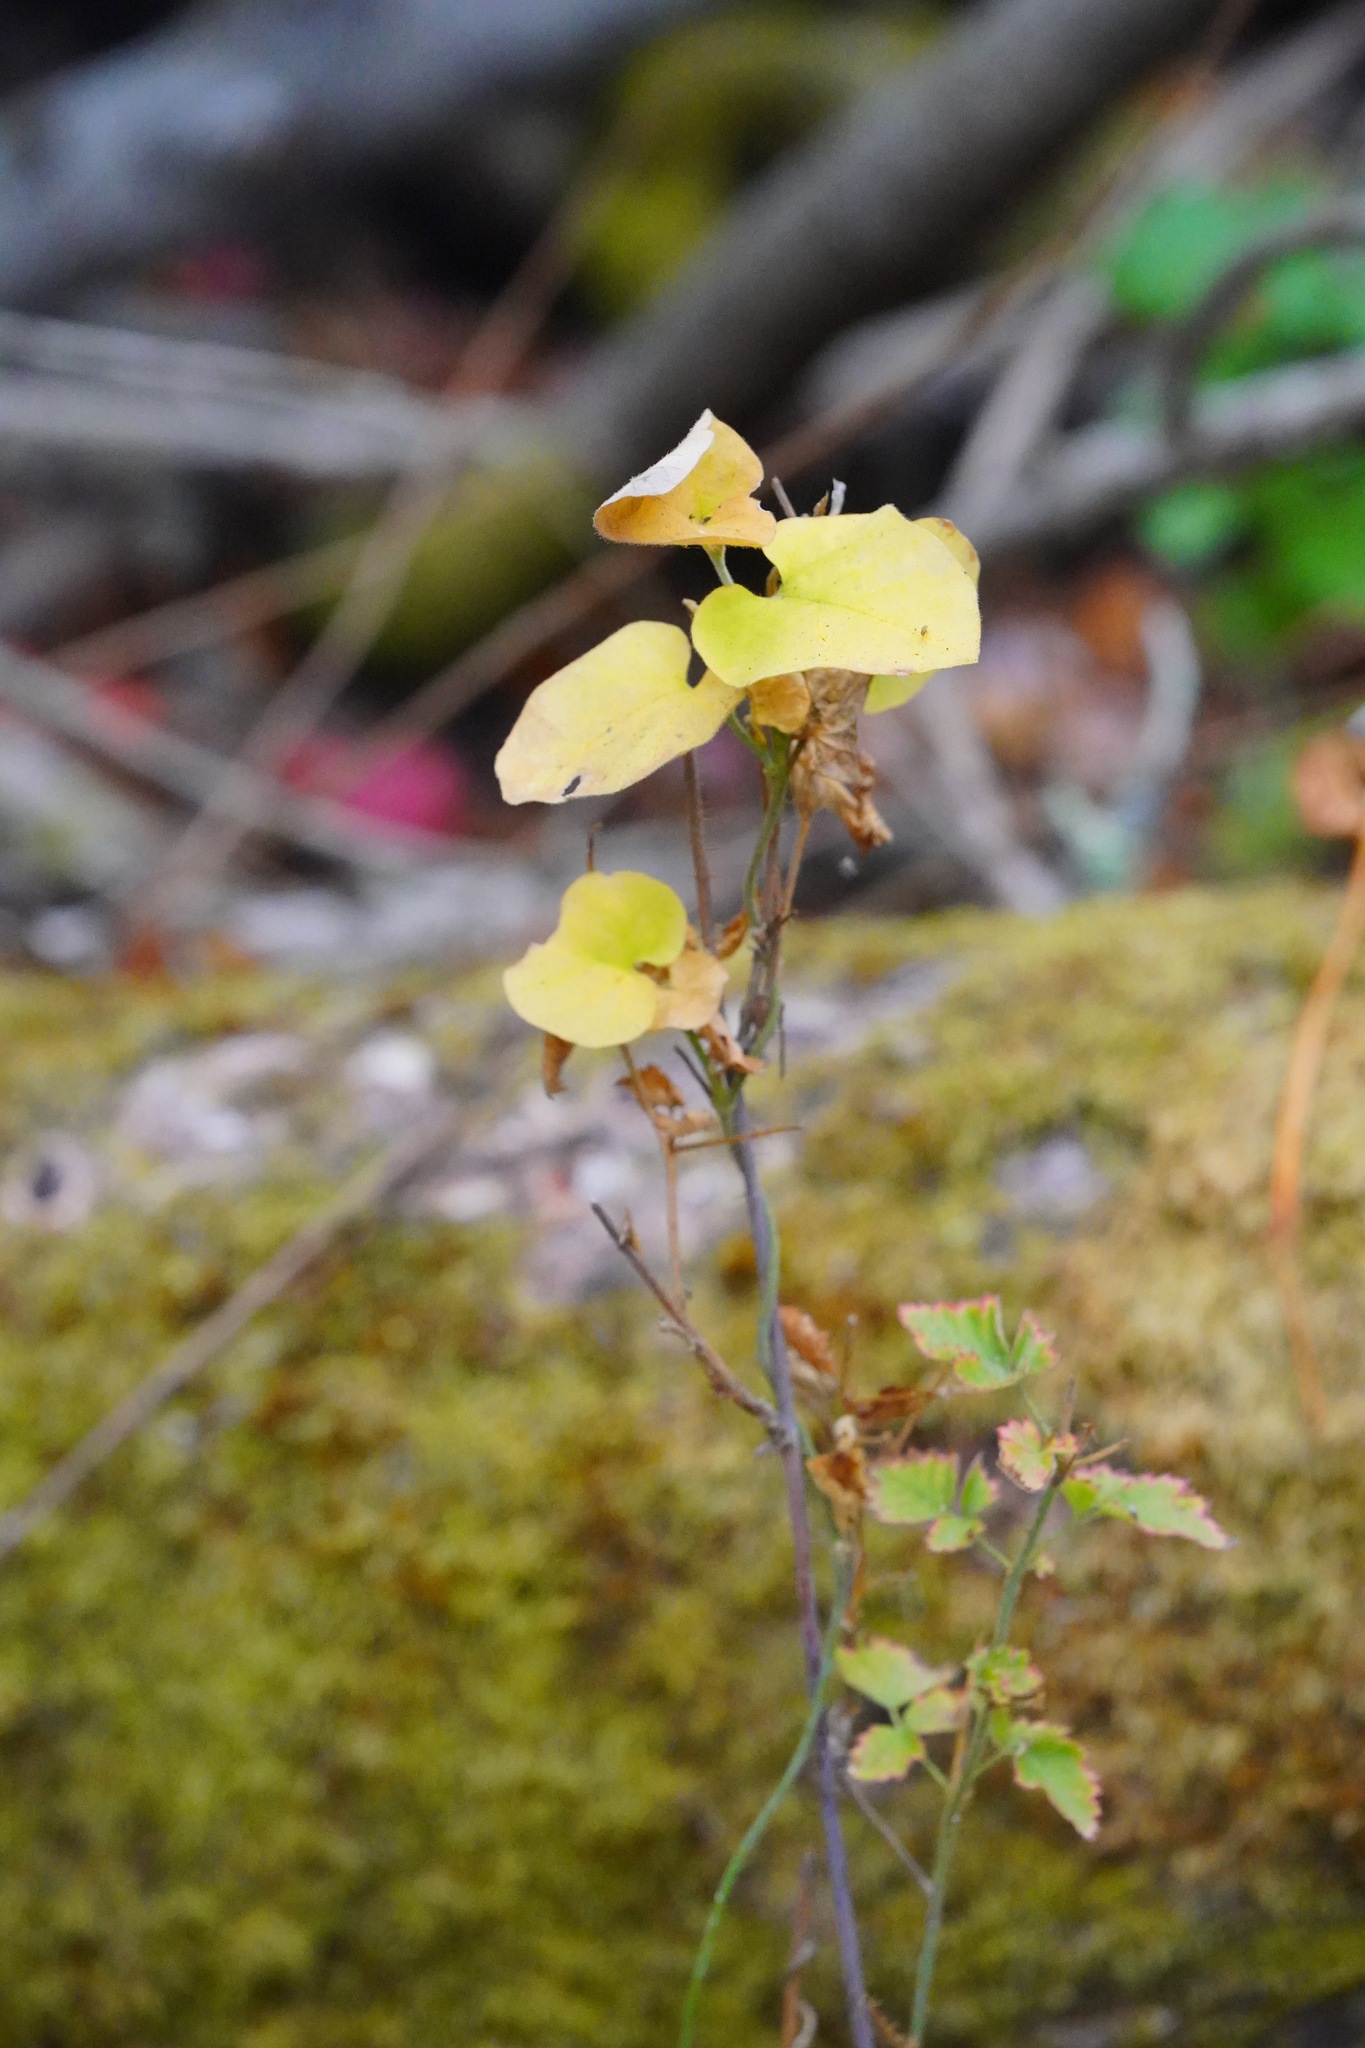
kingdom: Plantae
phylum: Tracheophyta
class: Magnoliopsida
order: Piperales
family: Aristolochiaceae
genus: Isotrema
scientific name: Isotrema californicum
